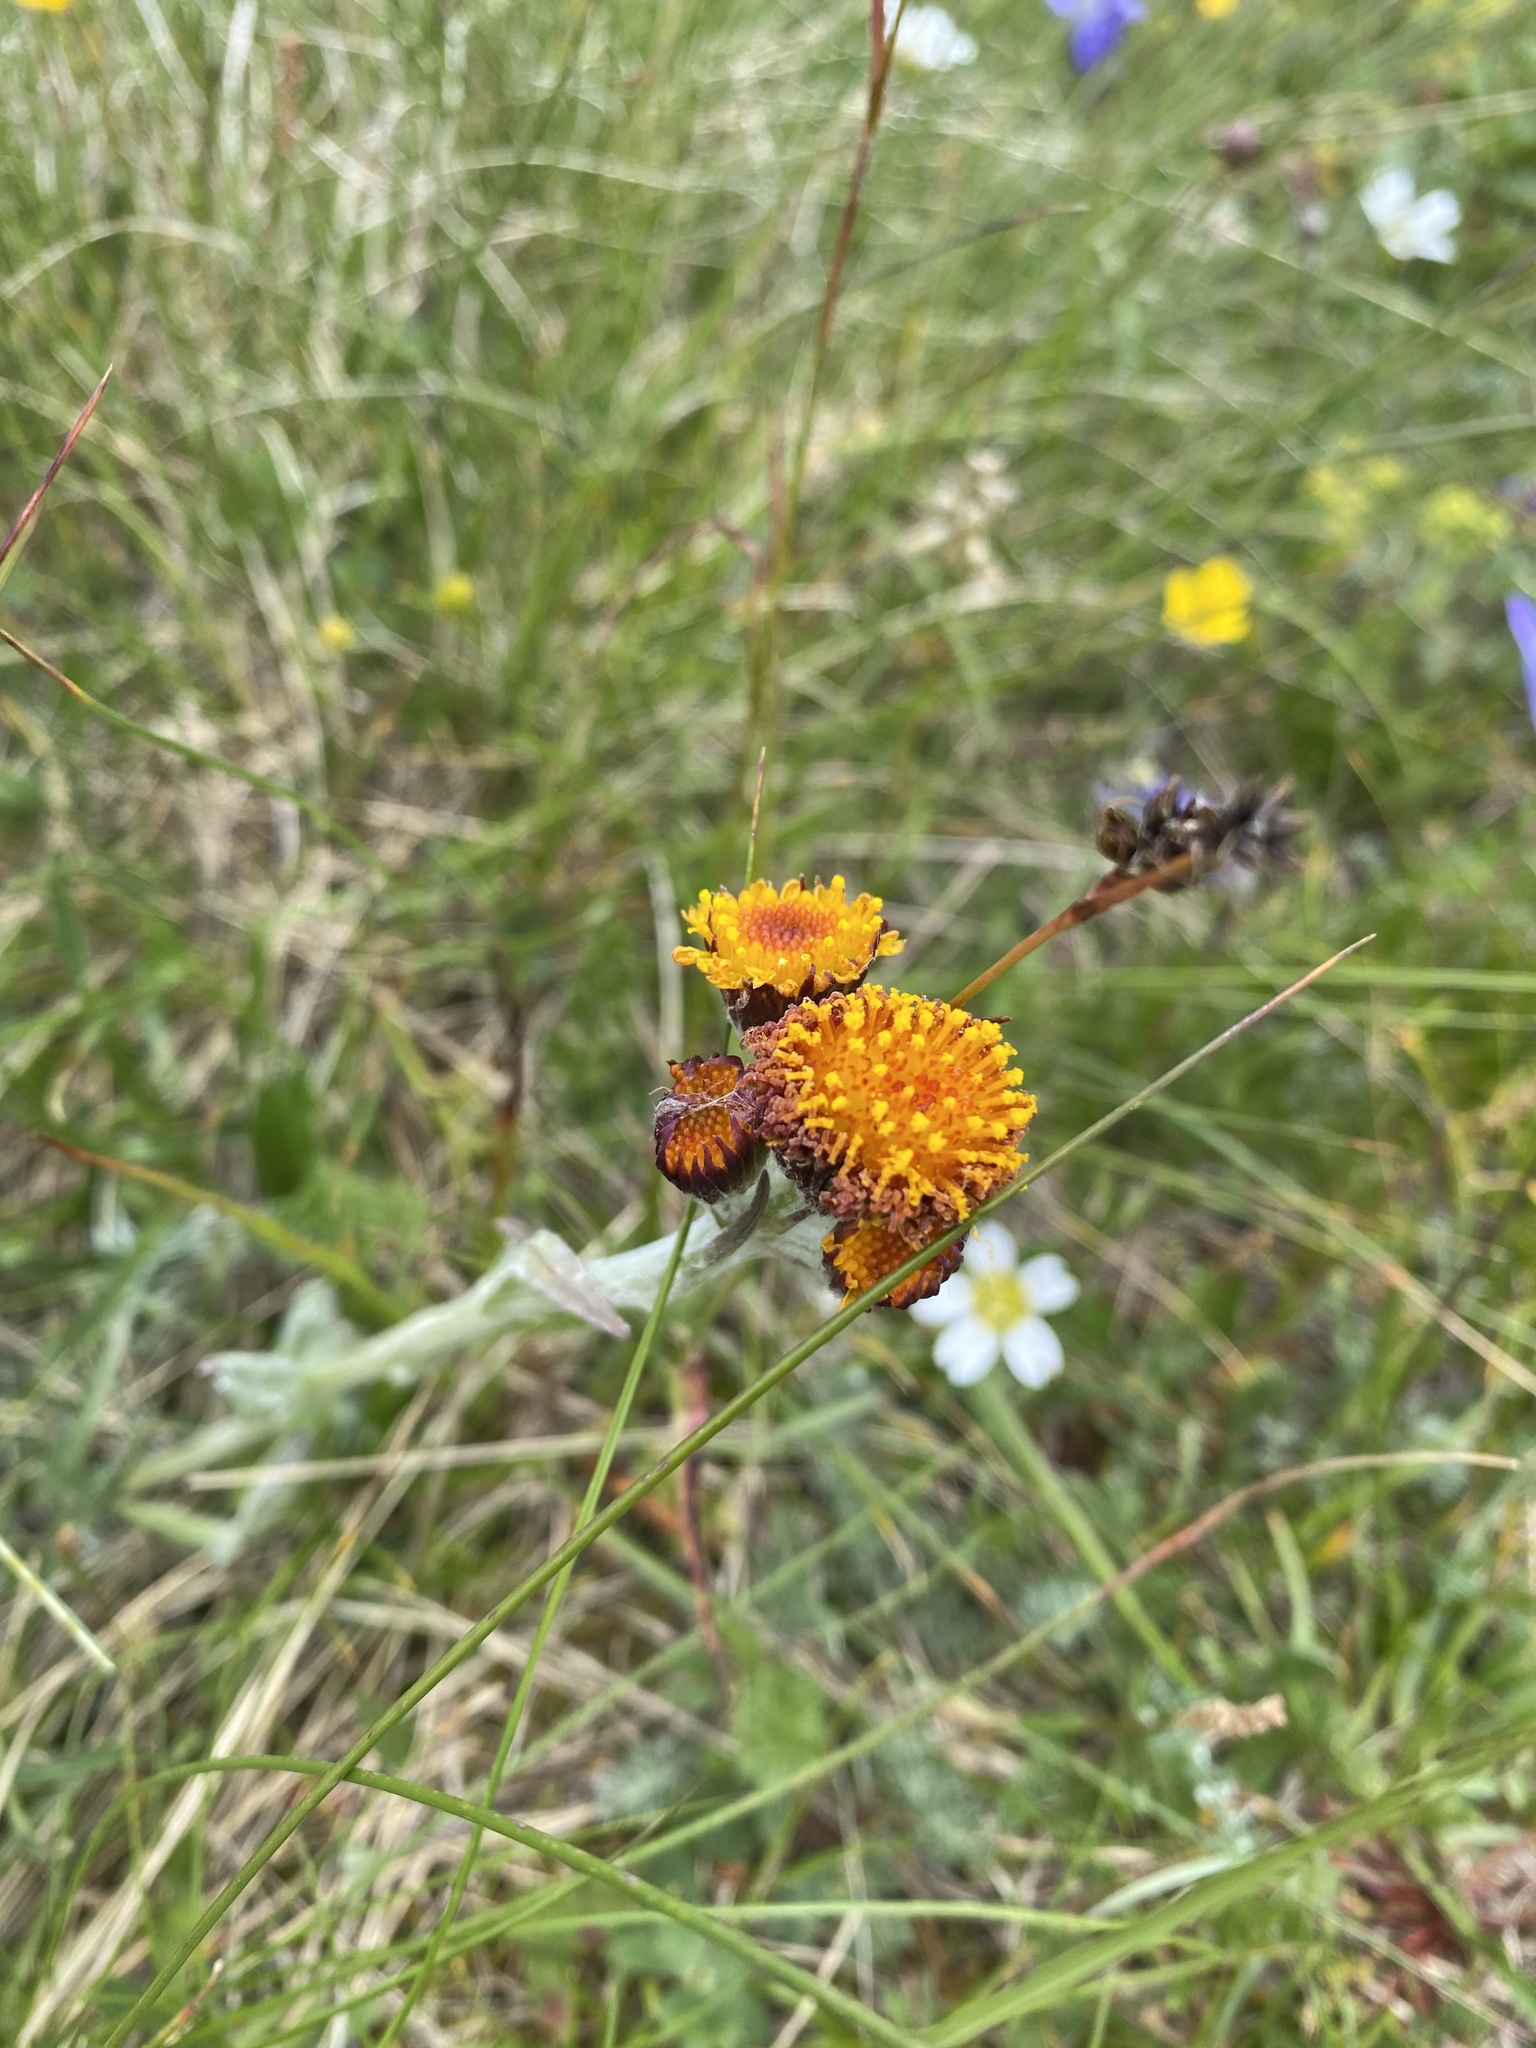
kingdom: Plantae
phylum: Tracheophyta
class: Magnoliopsida
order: Asterales
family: Asteraceae
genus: Tephroseris
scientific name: Tephroseris integrifolia
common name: Field fleawort
